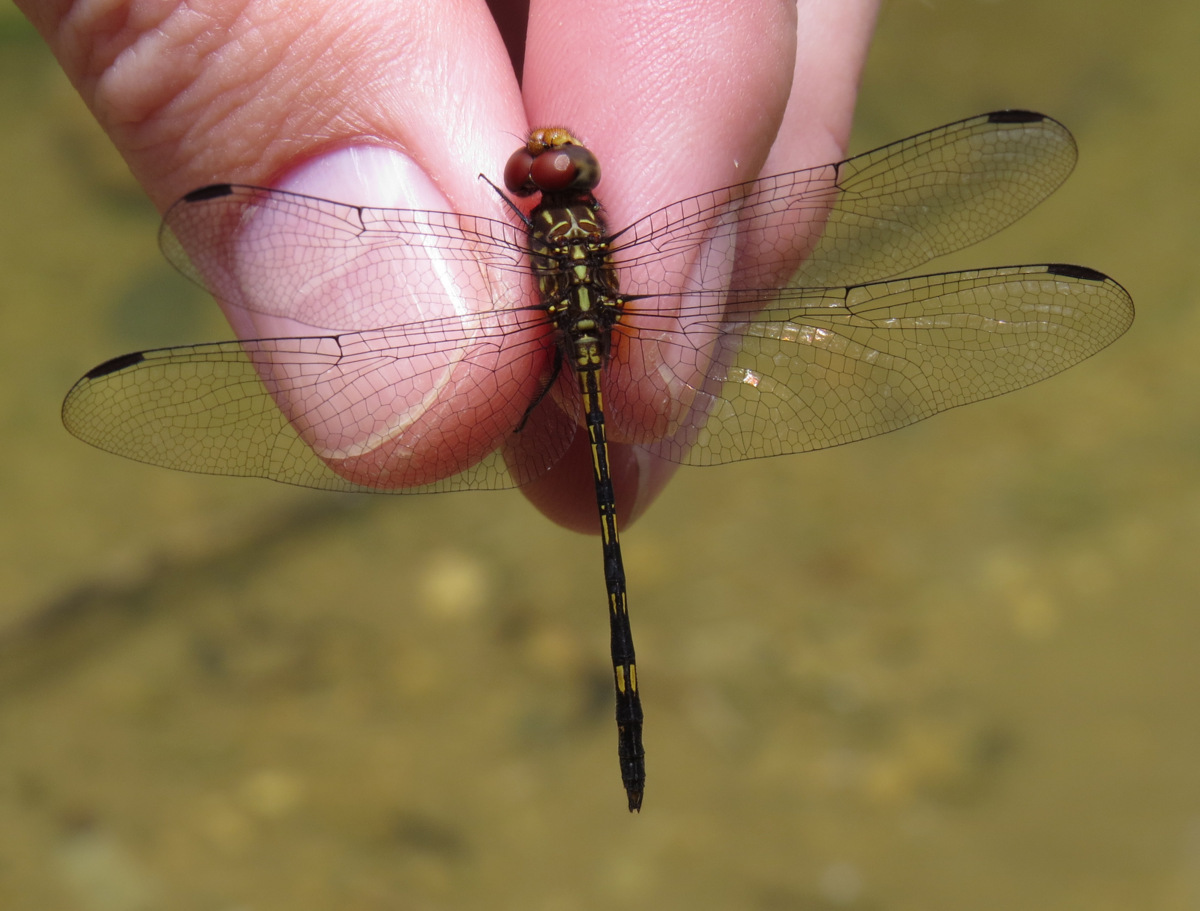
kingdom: Animalia
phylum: Arthropoda
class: Insecta
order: Odonata
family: Libellulidae
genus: Dythemis
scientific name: Dythemis sterilis
